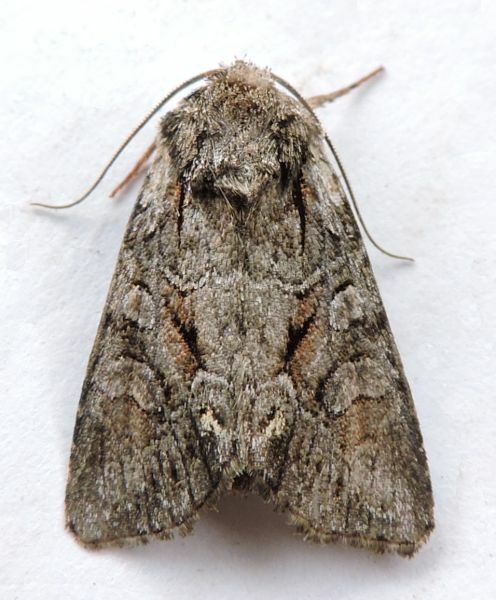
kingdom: Animalia
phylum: Arthropoda
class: Insecta
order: Lepidoptera
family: Noctuidae
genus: Lacinipolia
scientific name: Lacinipolia vicina
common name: Vicina dart
